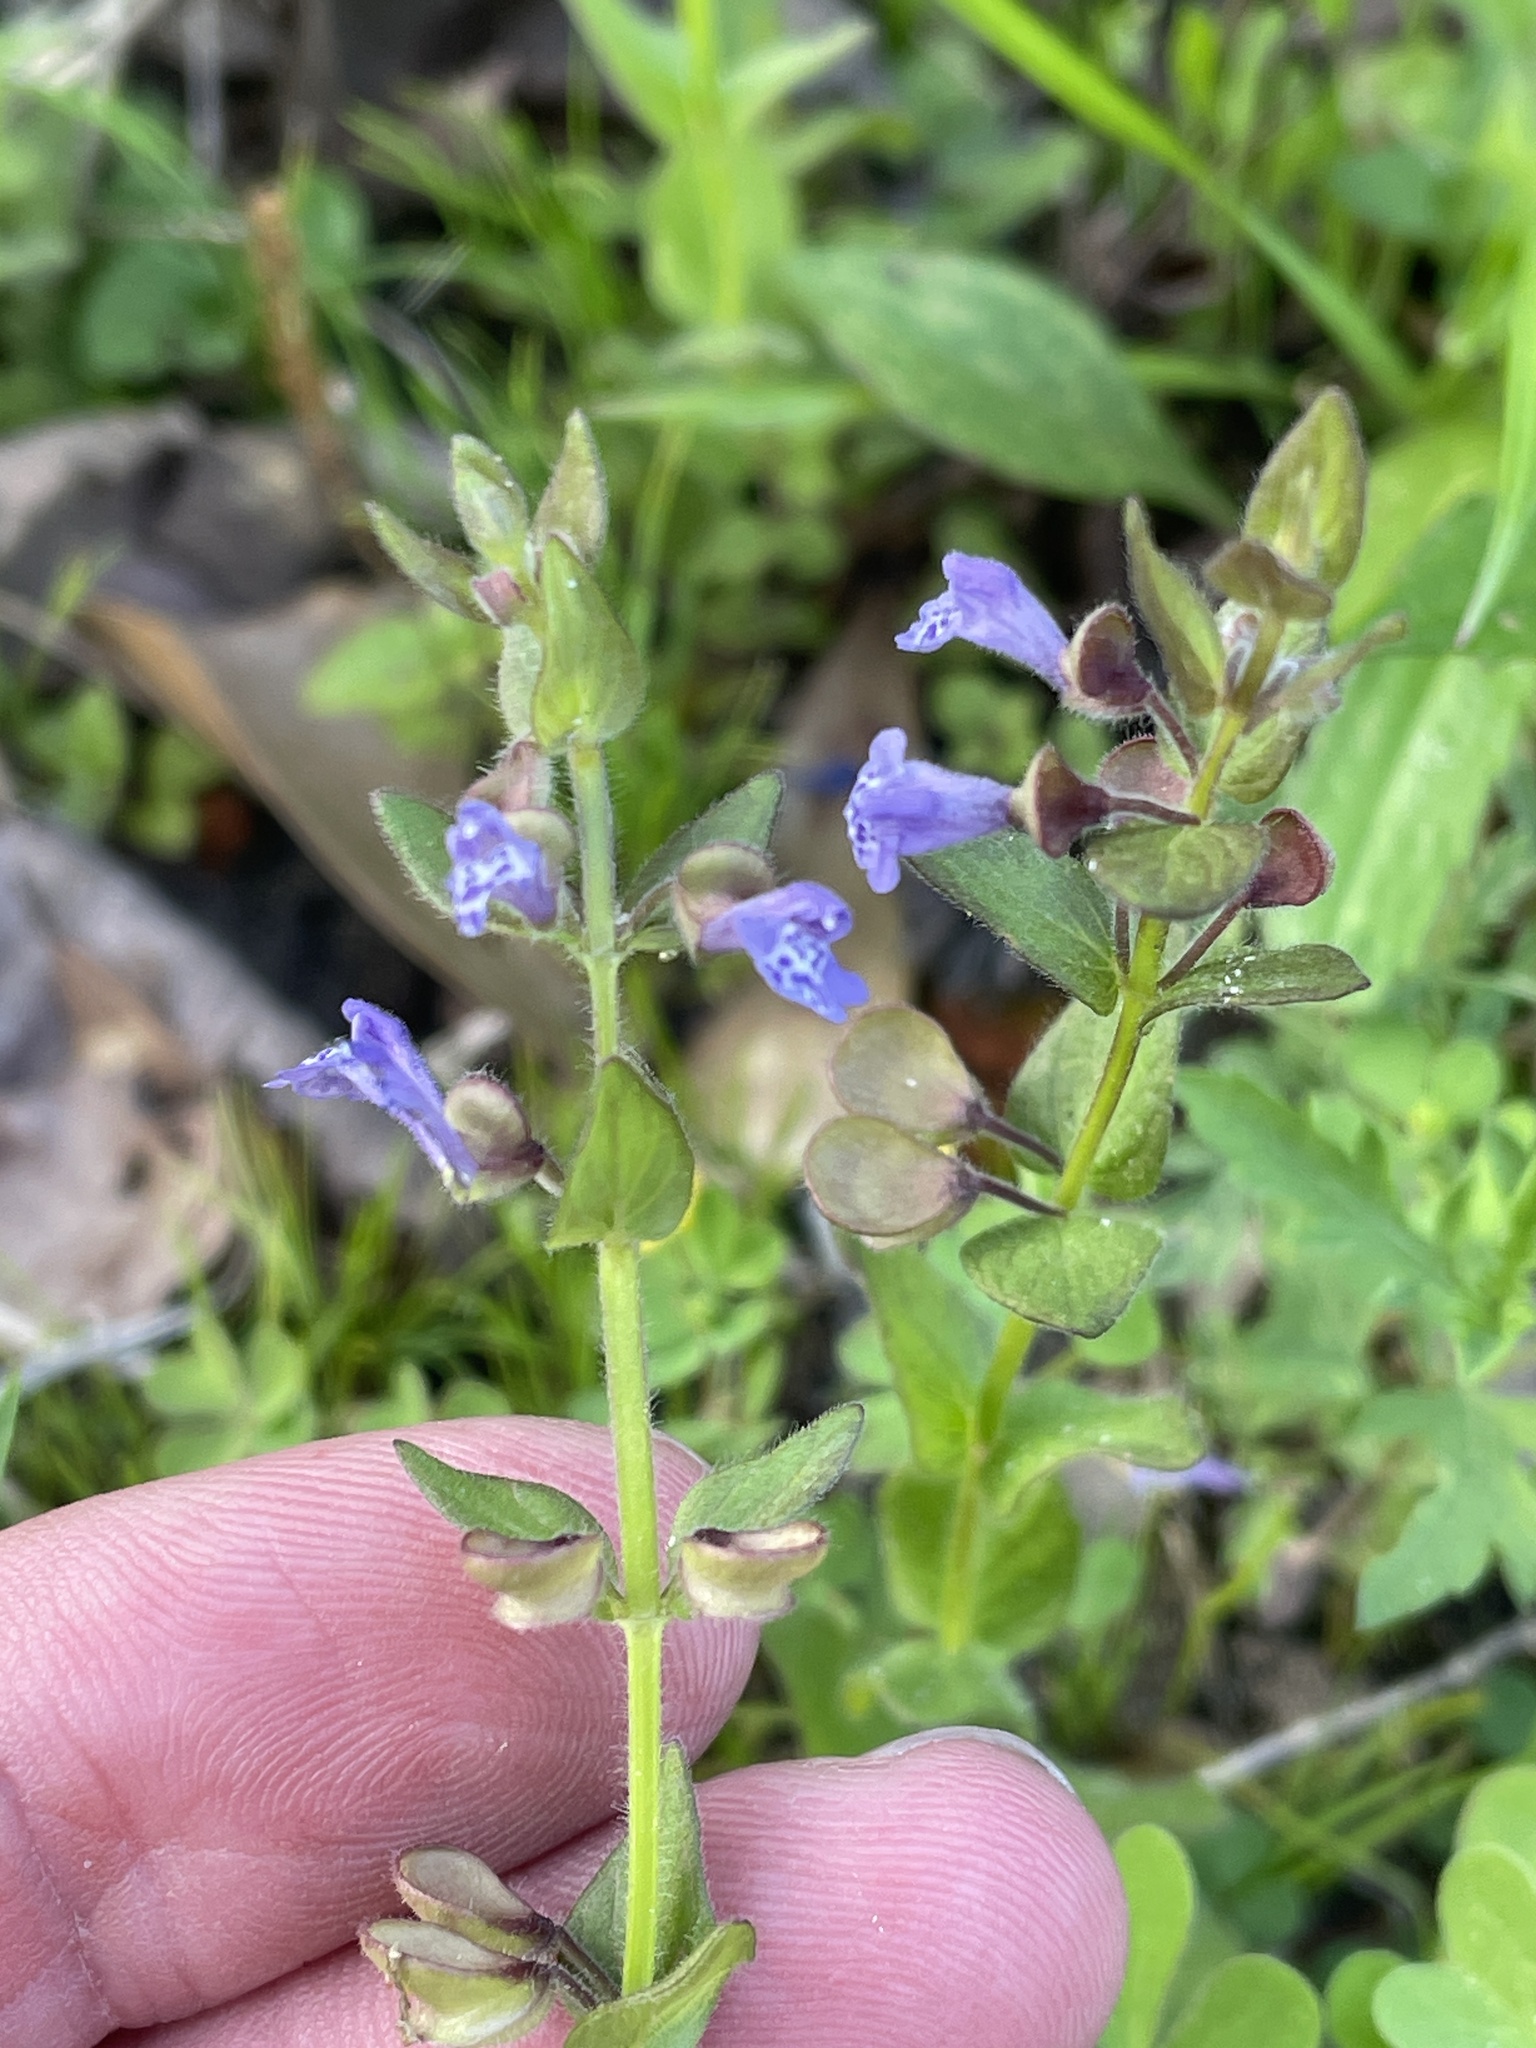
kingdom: Plantae
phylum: Tracheophyta
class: Magnoliopsida
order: Lamiales
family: Lamiaceae
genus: Scutellaria
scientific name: Scutellaria parvula
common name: Little scullcap
